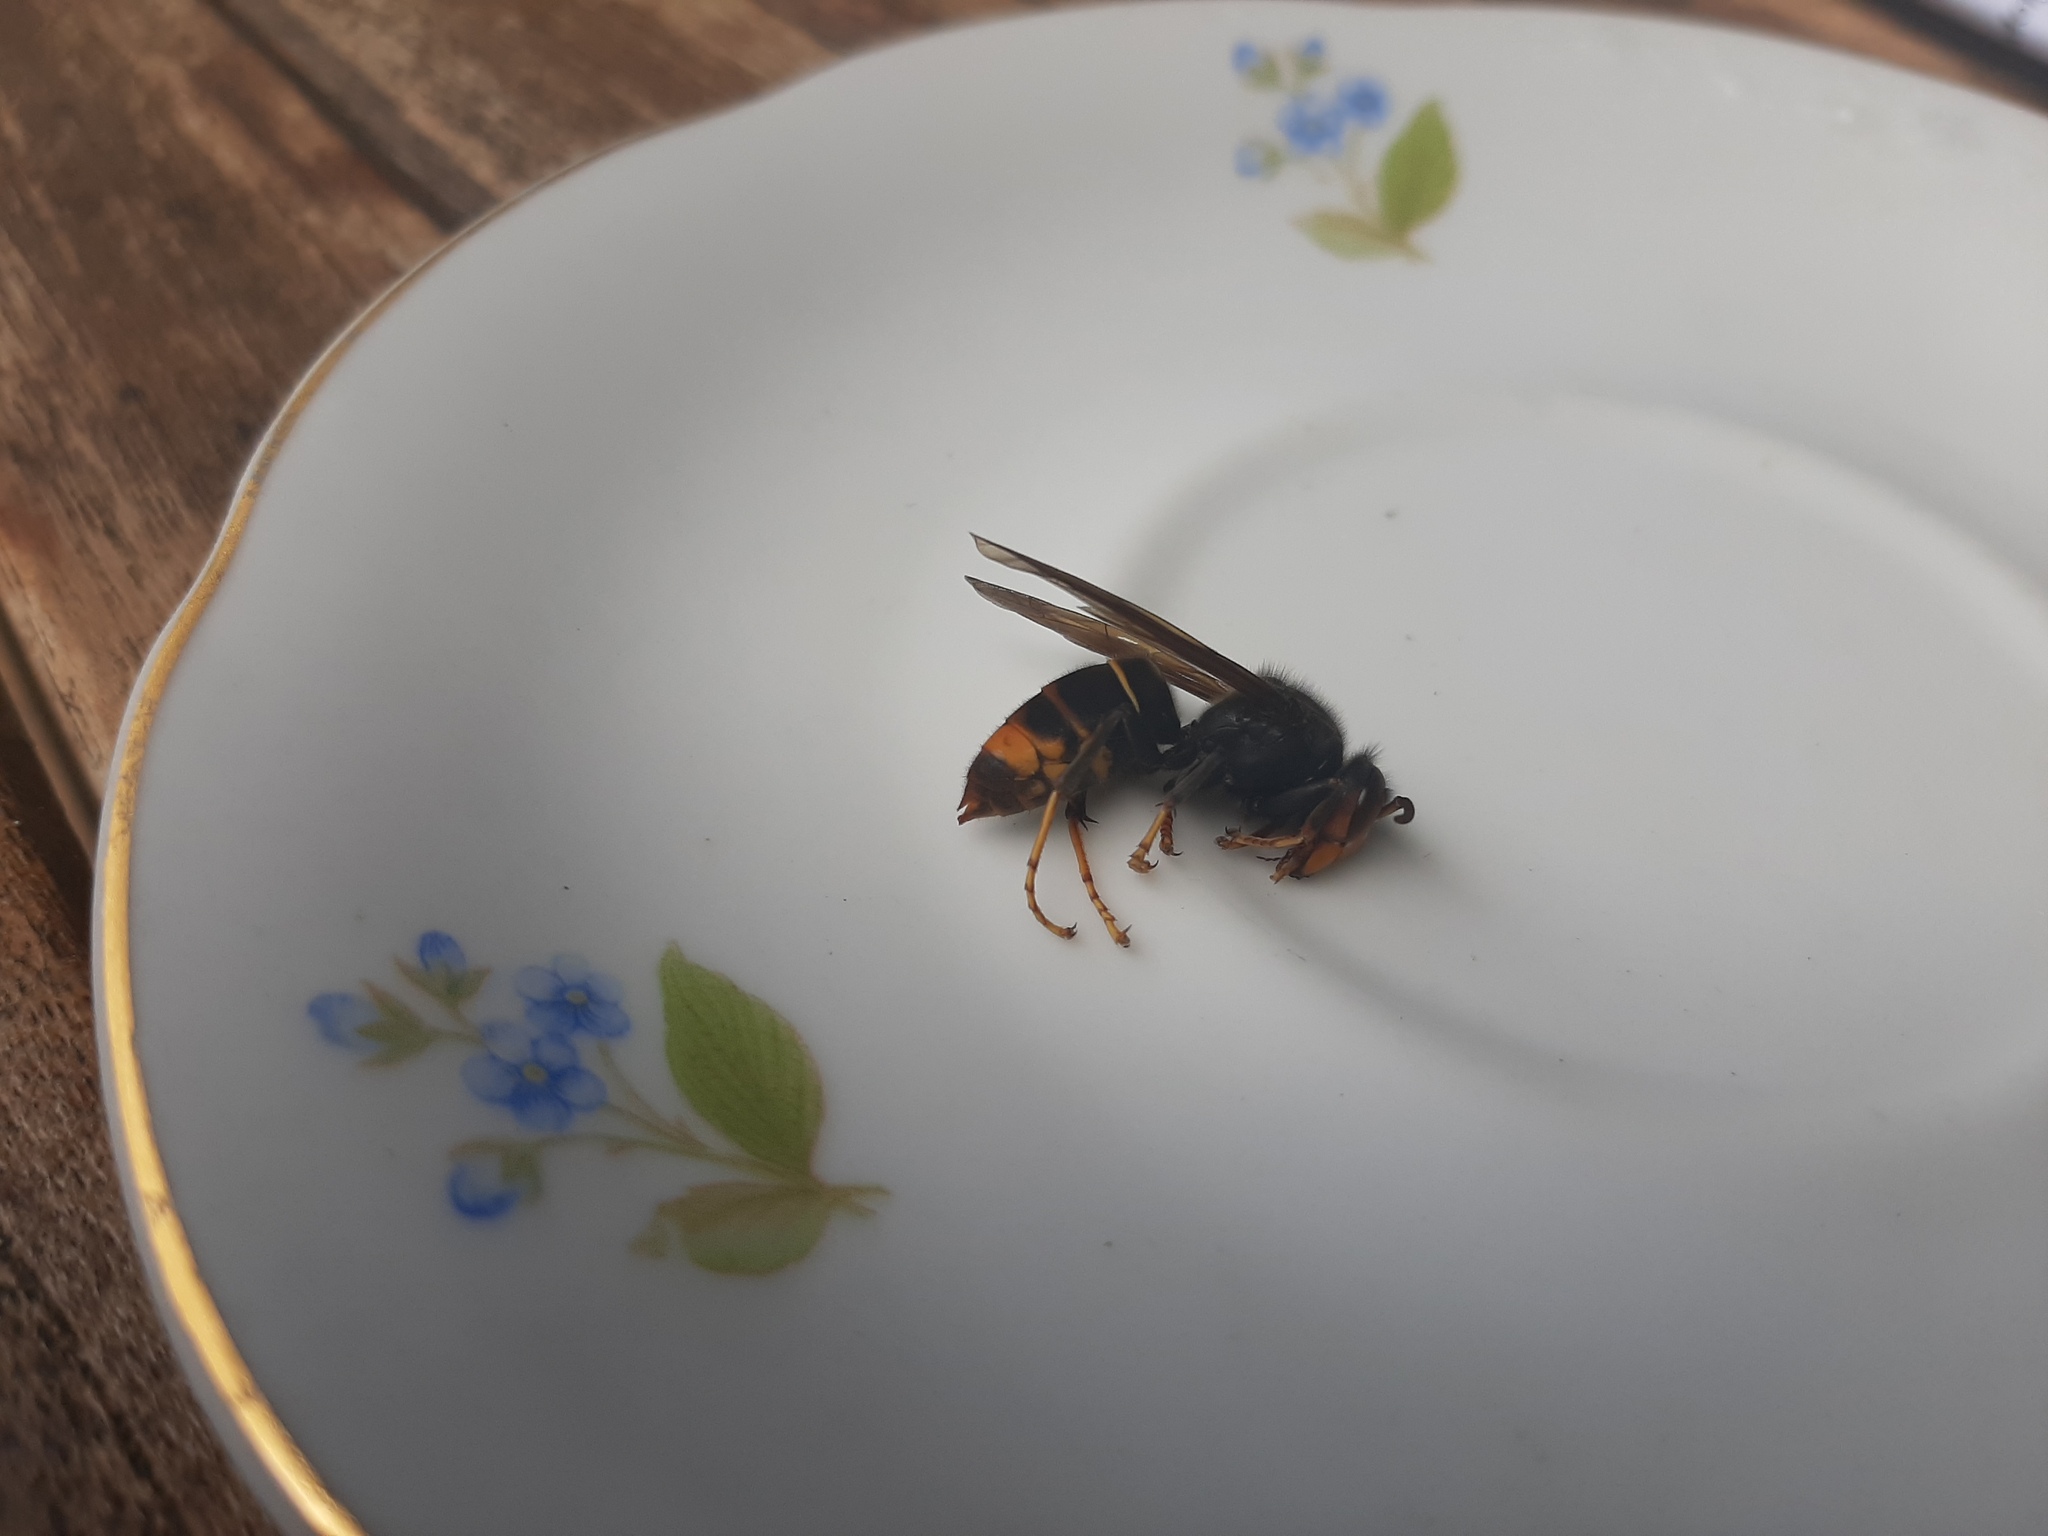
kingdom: Animalia
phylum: Arthropoda
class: Insecta
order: Hymenoptera
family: Vespidae
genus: Vespa
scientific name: Vespa velutina
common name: Asian hornet
